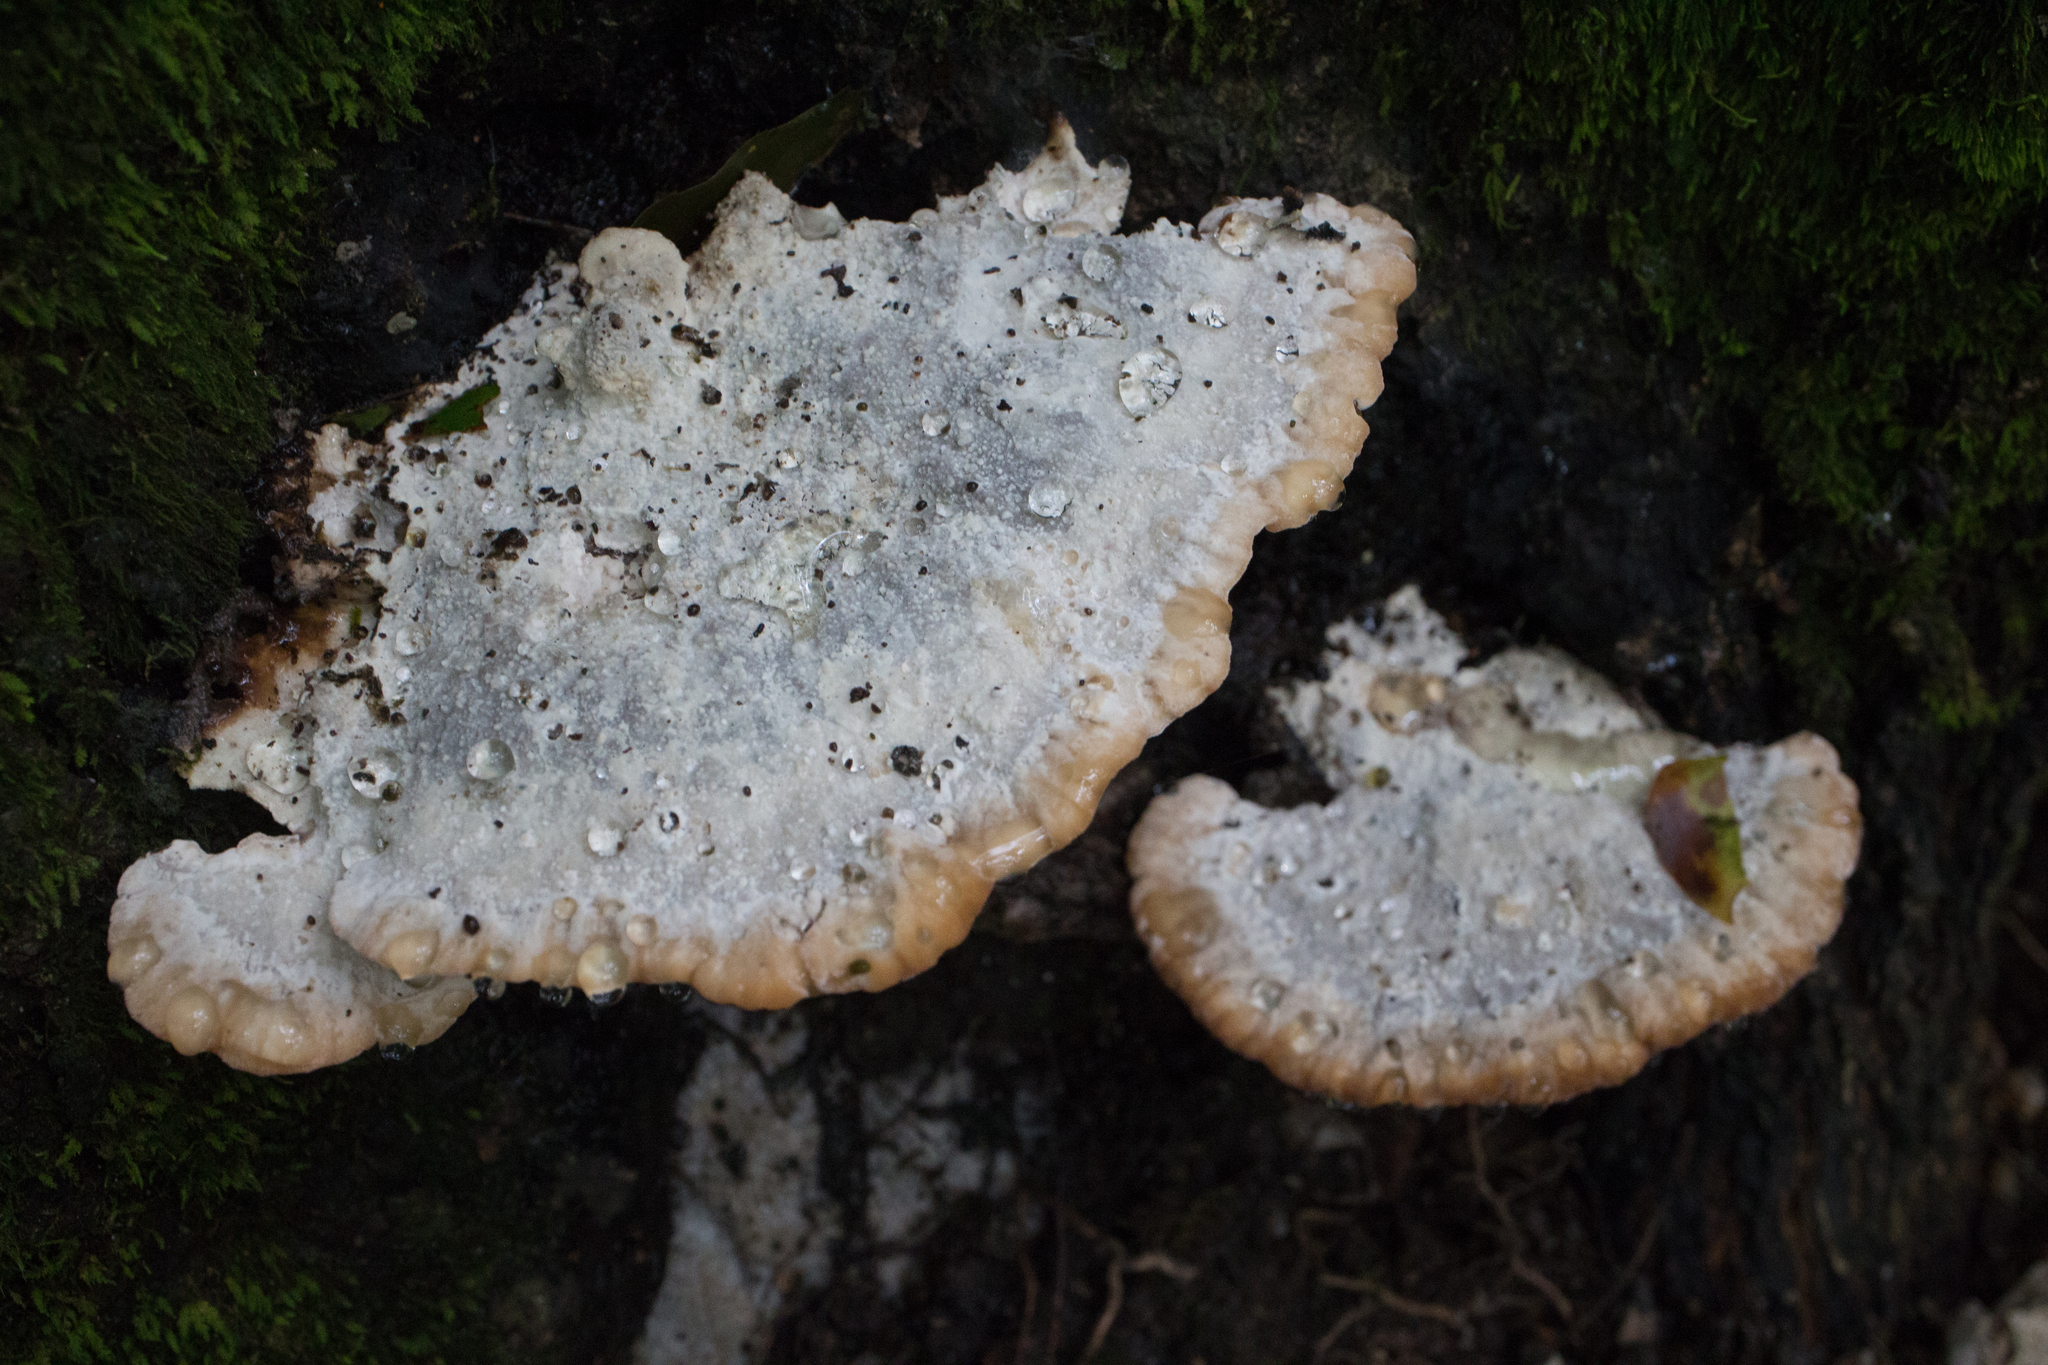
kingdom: Fungi
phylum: Basidiomycota
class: Agaricomycetes
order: Polyporales
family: Fomitopsidaceae
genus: Niveoporofomes
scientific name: Niveoporofomes spraguei
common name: Green cheese polypore
